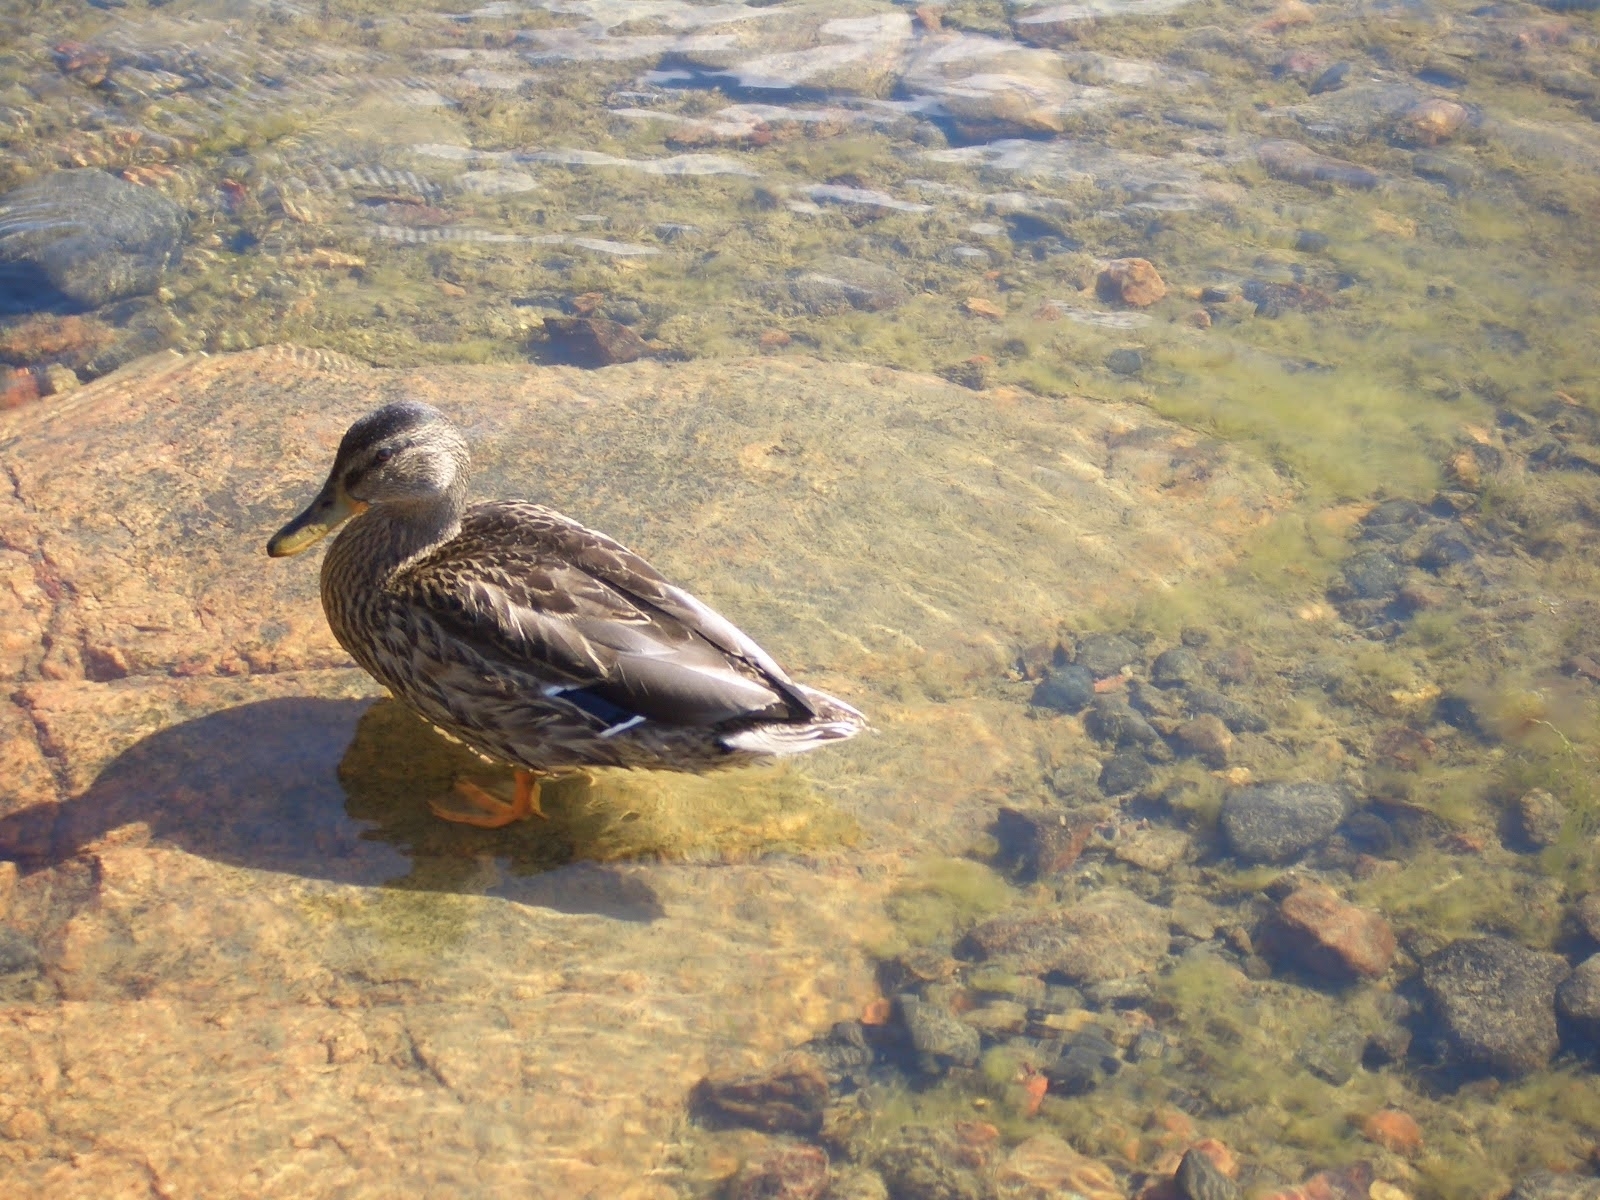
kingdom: Animalia
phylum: Chordata
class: Aves
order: Anseriformes
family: Anatidae
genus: Anas
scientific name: Anas platyrhynchos
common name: Mallard
